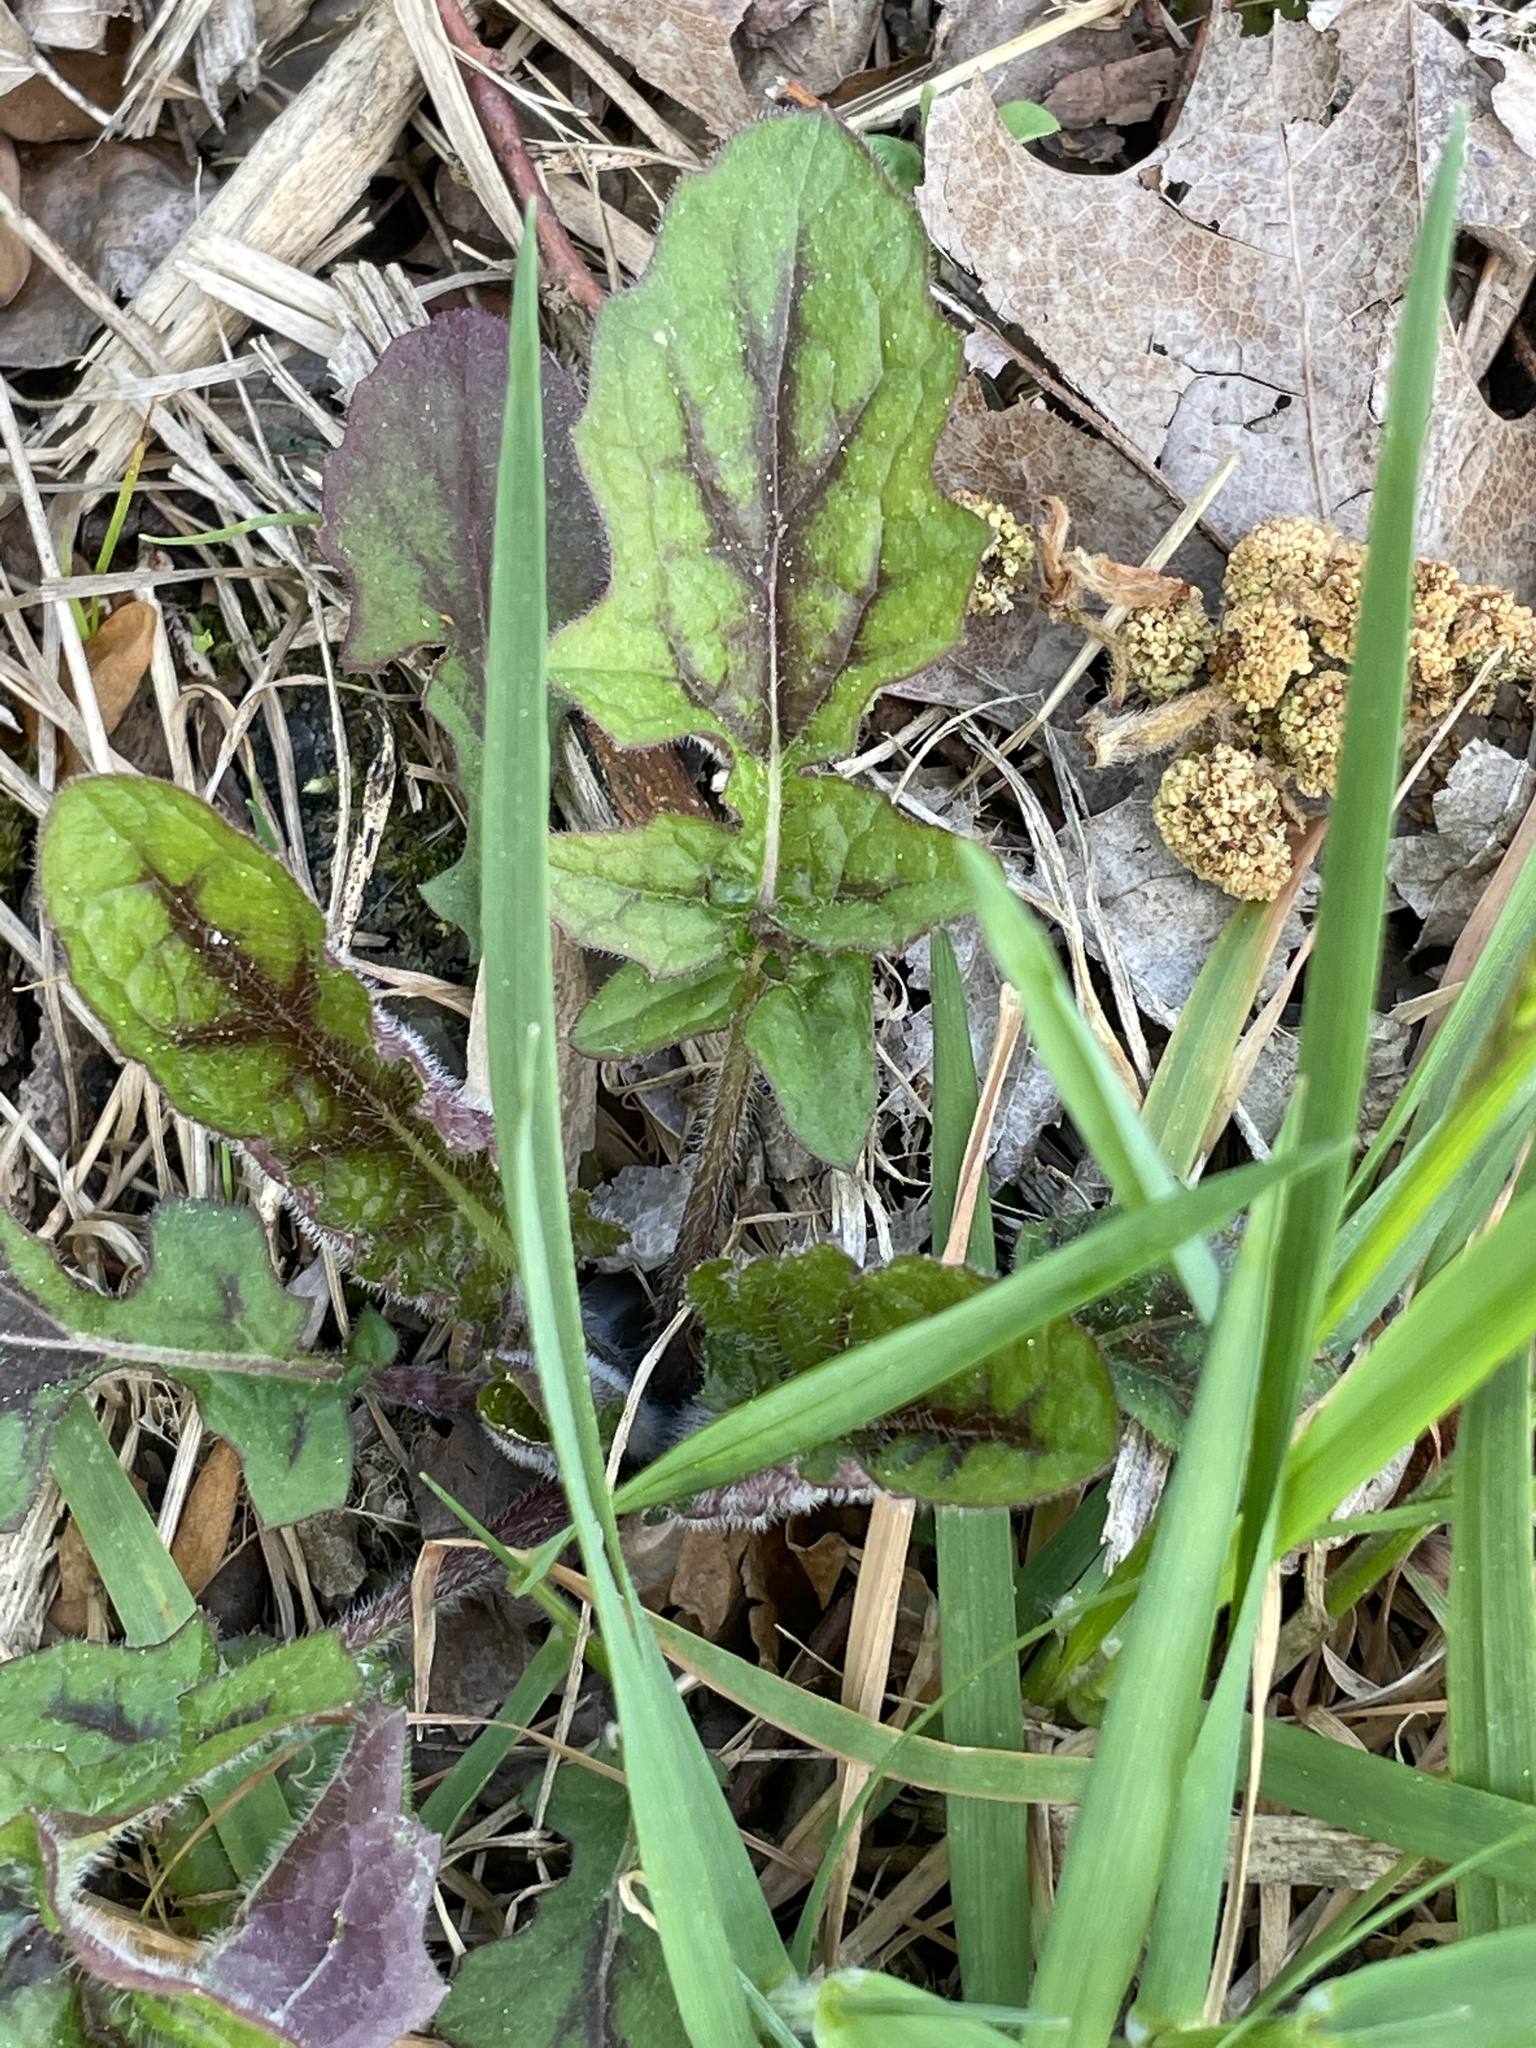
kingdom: Plantae
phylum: Tracheophyta
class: Magnoliopsida
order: Lamiales
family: Lamiaceae
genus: Salvia
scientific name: Salvia lyrata
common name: Cancerweed
